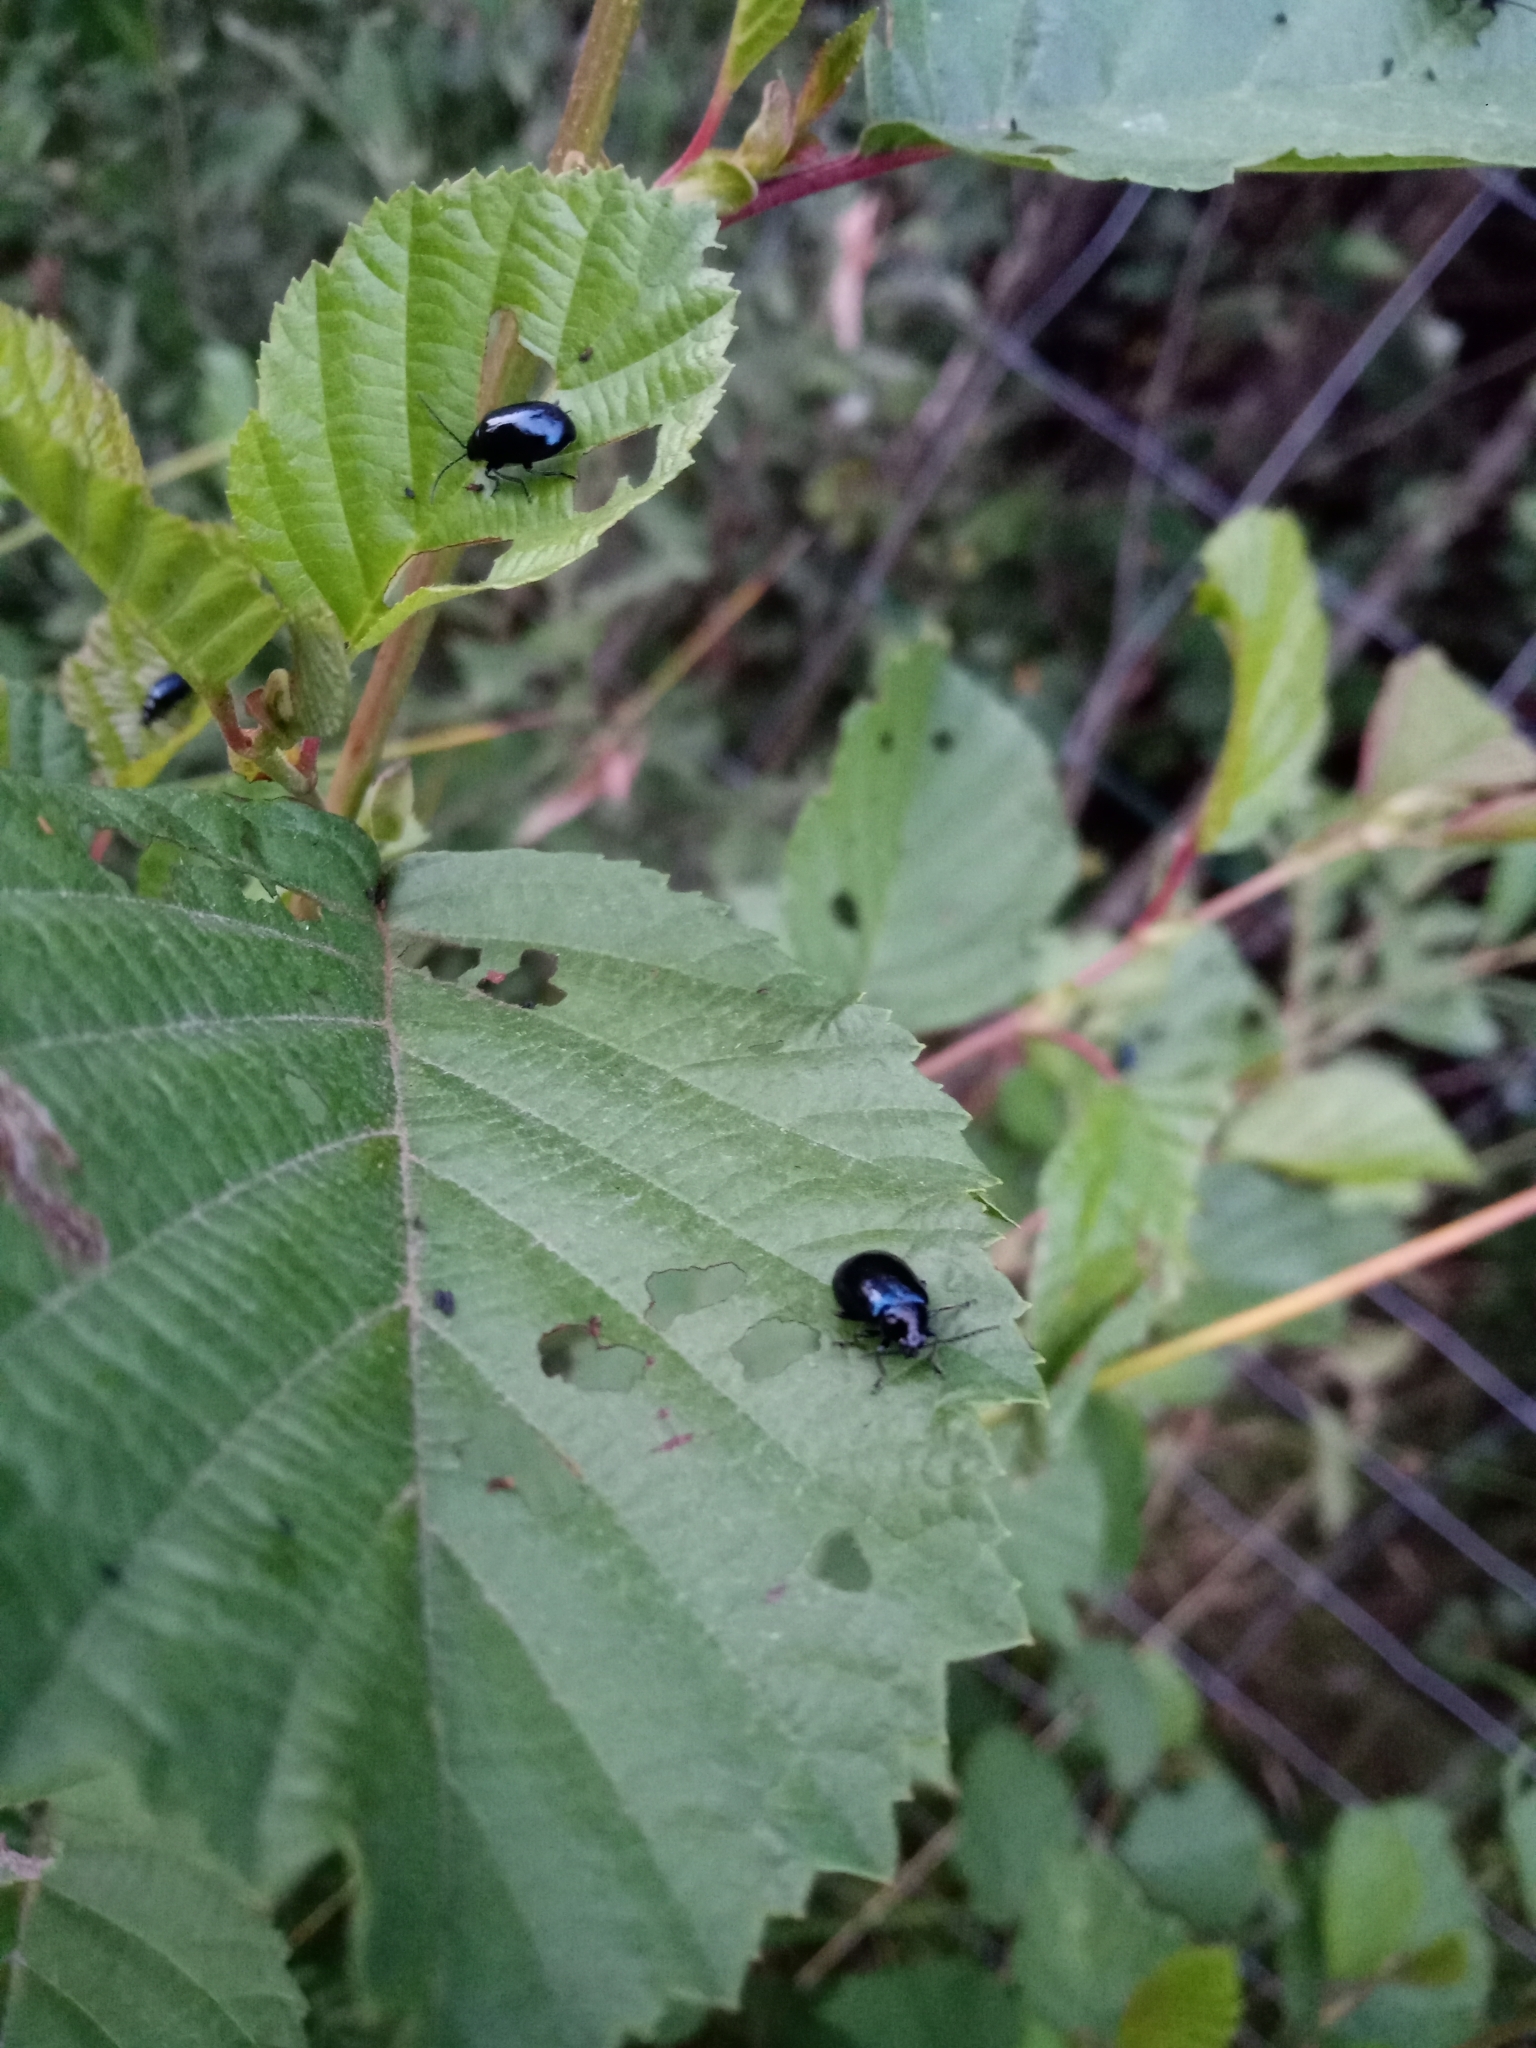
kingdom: Animalia
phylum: Arthropoda
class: Insecta
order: Coleoptera
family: Chrysomelidae
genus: Agelastica
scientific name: Agelastica alni
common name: Alder leaf beetle
